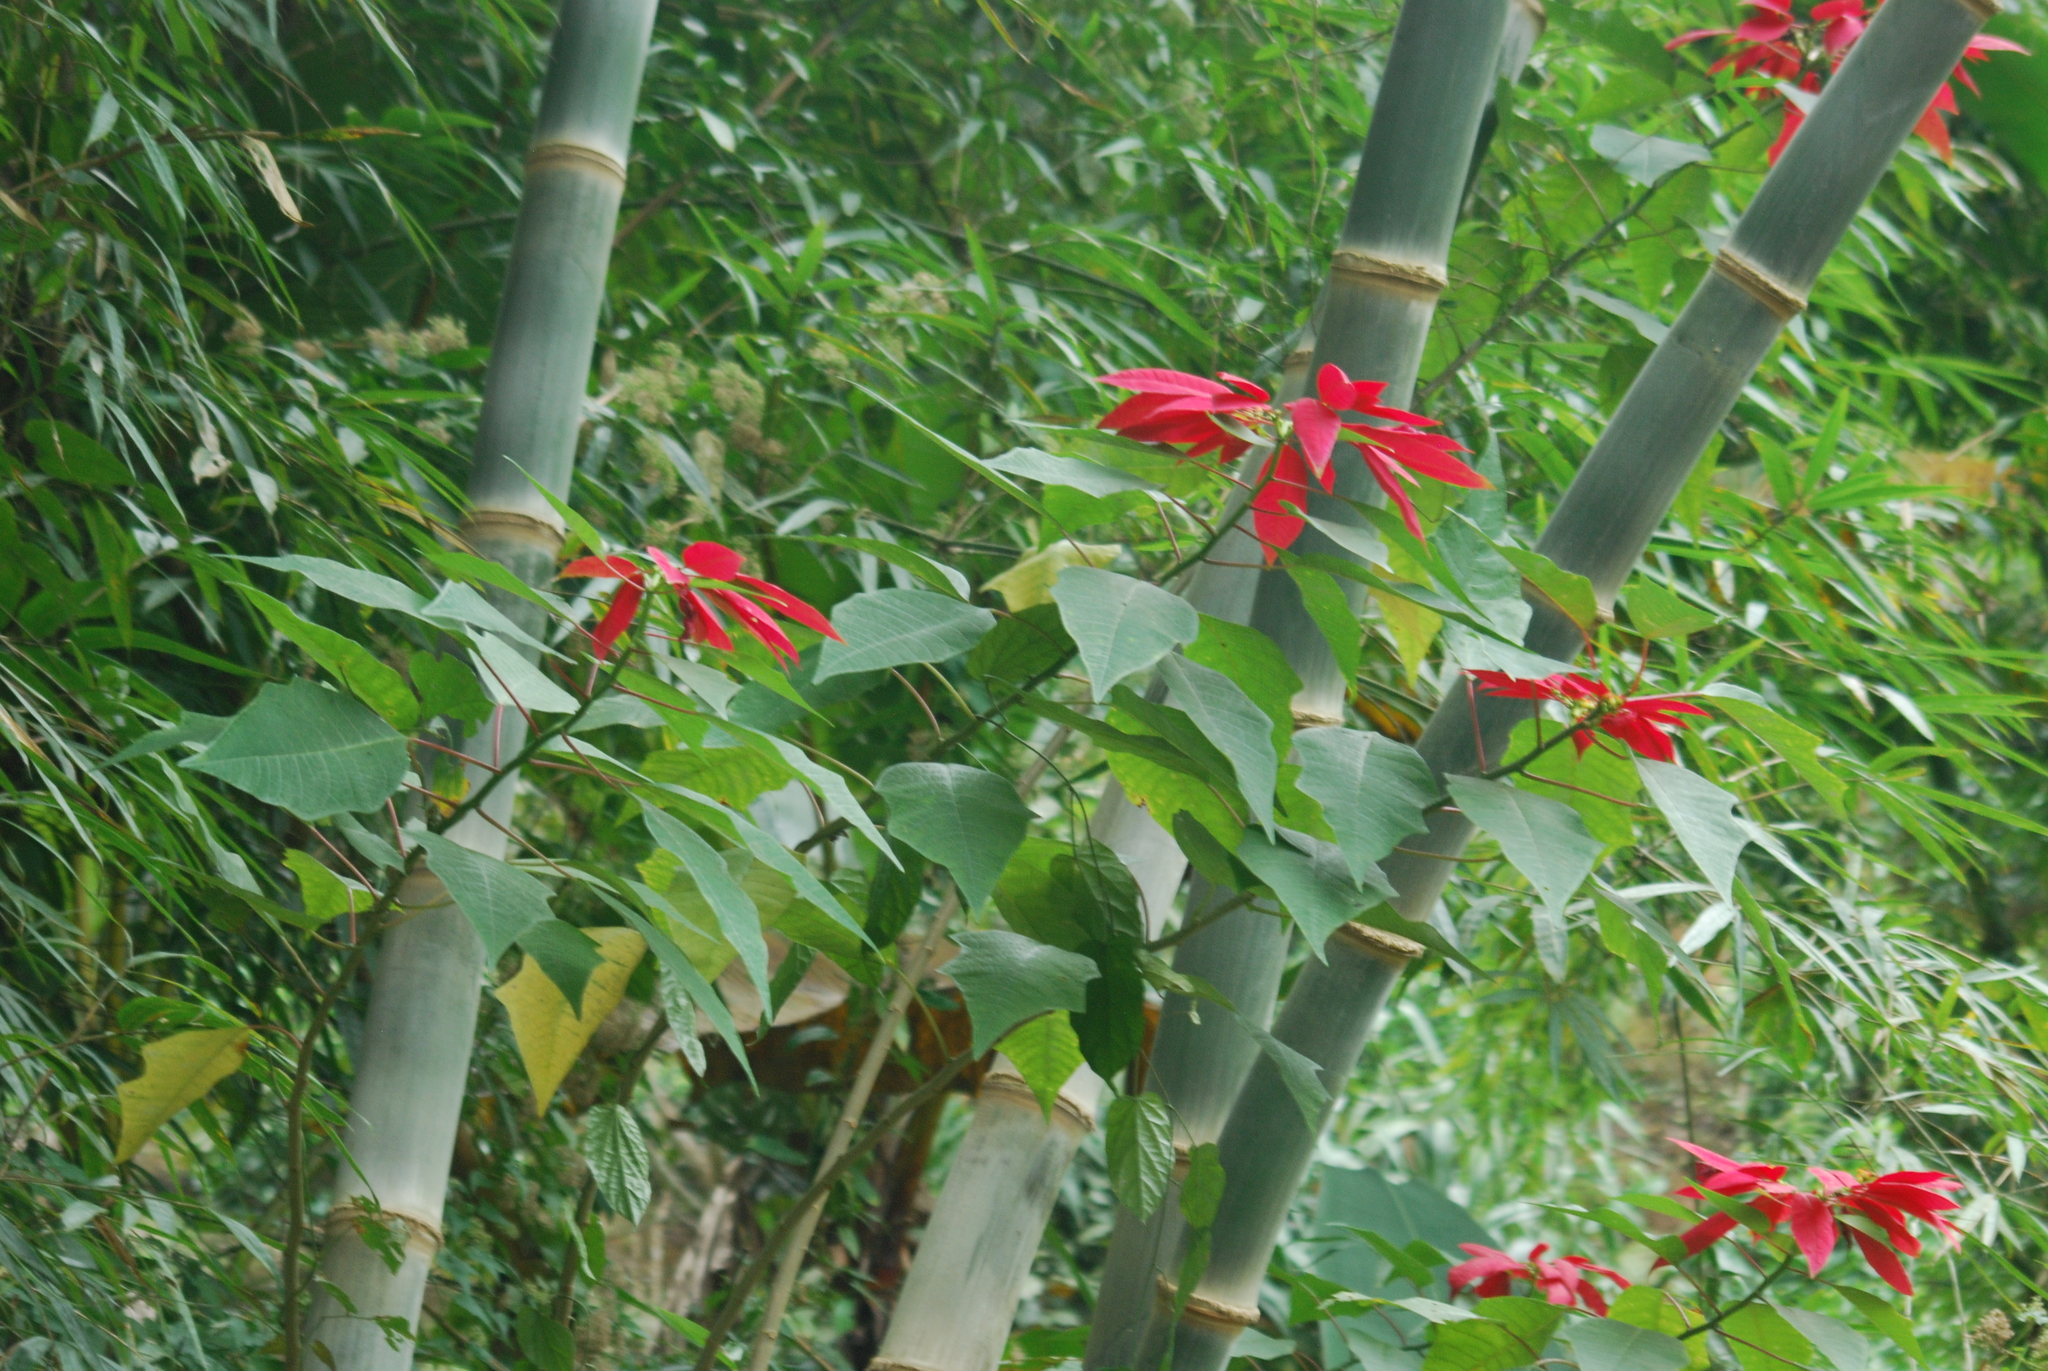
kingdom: Plantae
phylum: Tracheophyta
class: Magnoliopsida
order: Malpighiales
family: Euphorbiaceae
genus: Euphorbia
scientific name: Euphorbia pulcherrima
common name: Christmas-flower
